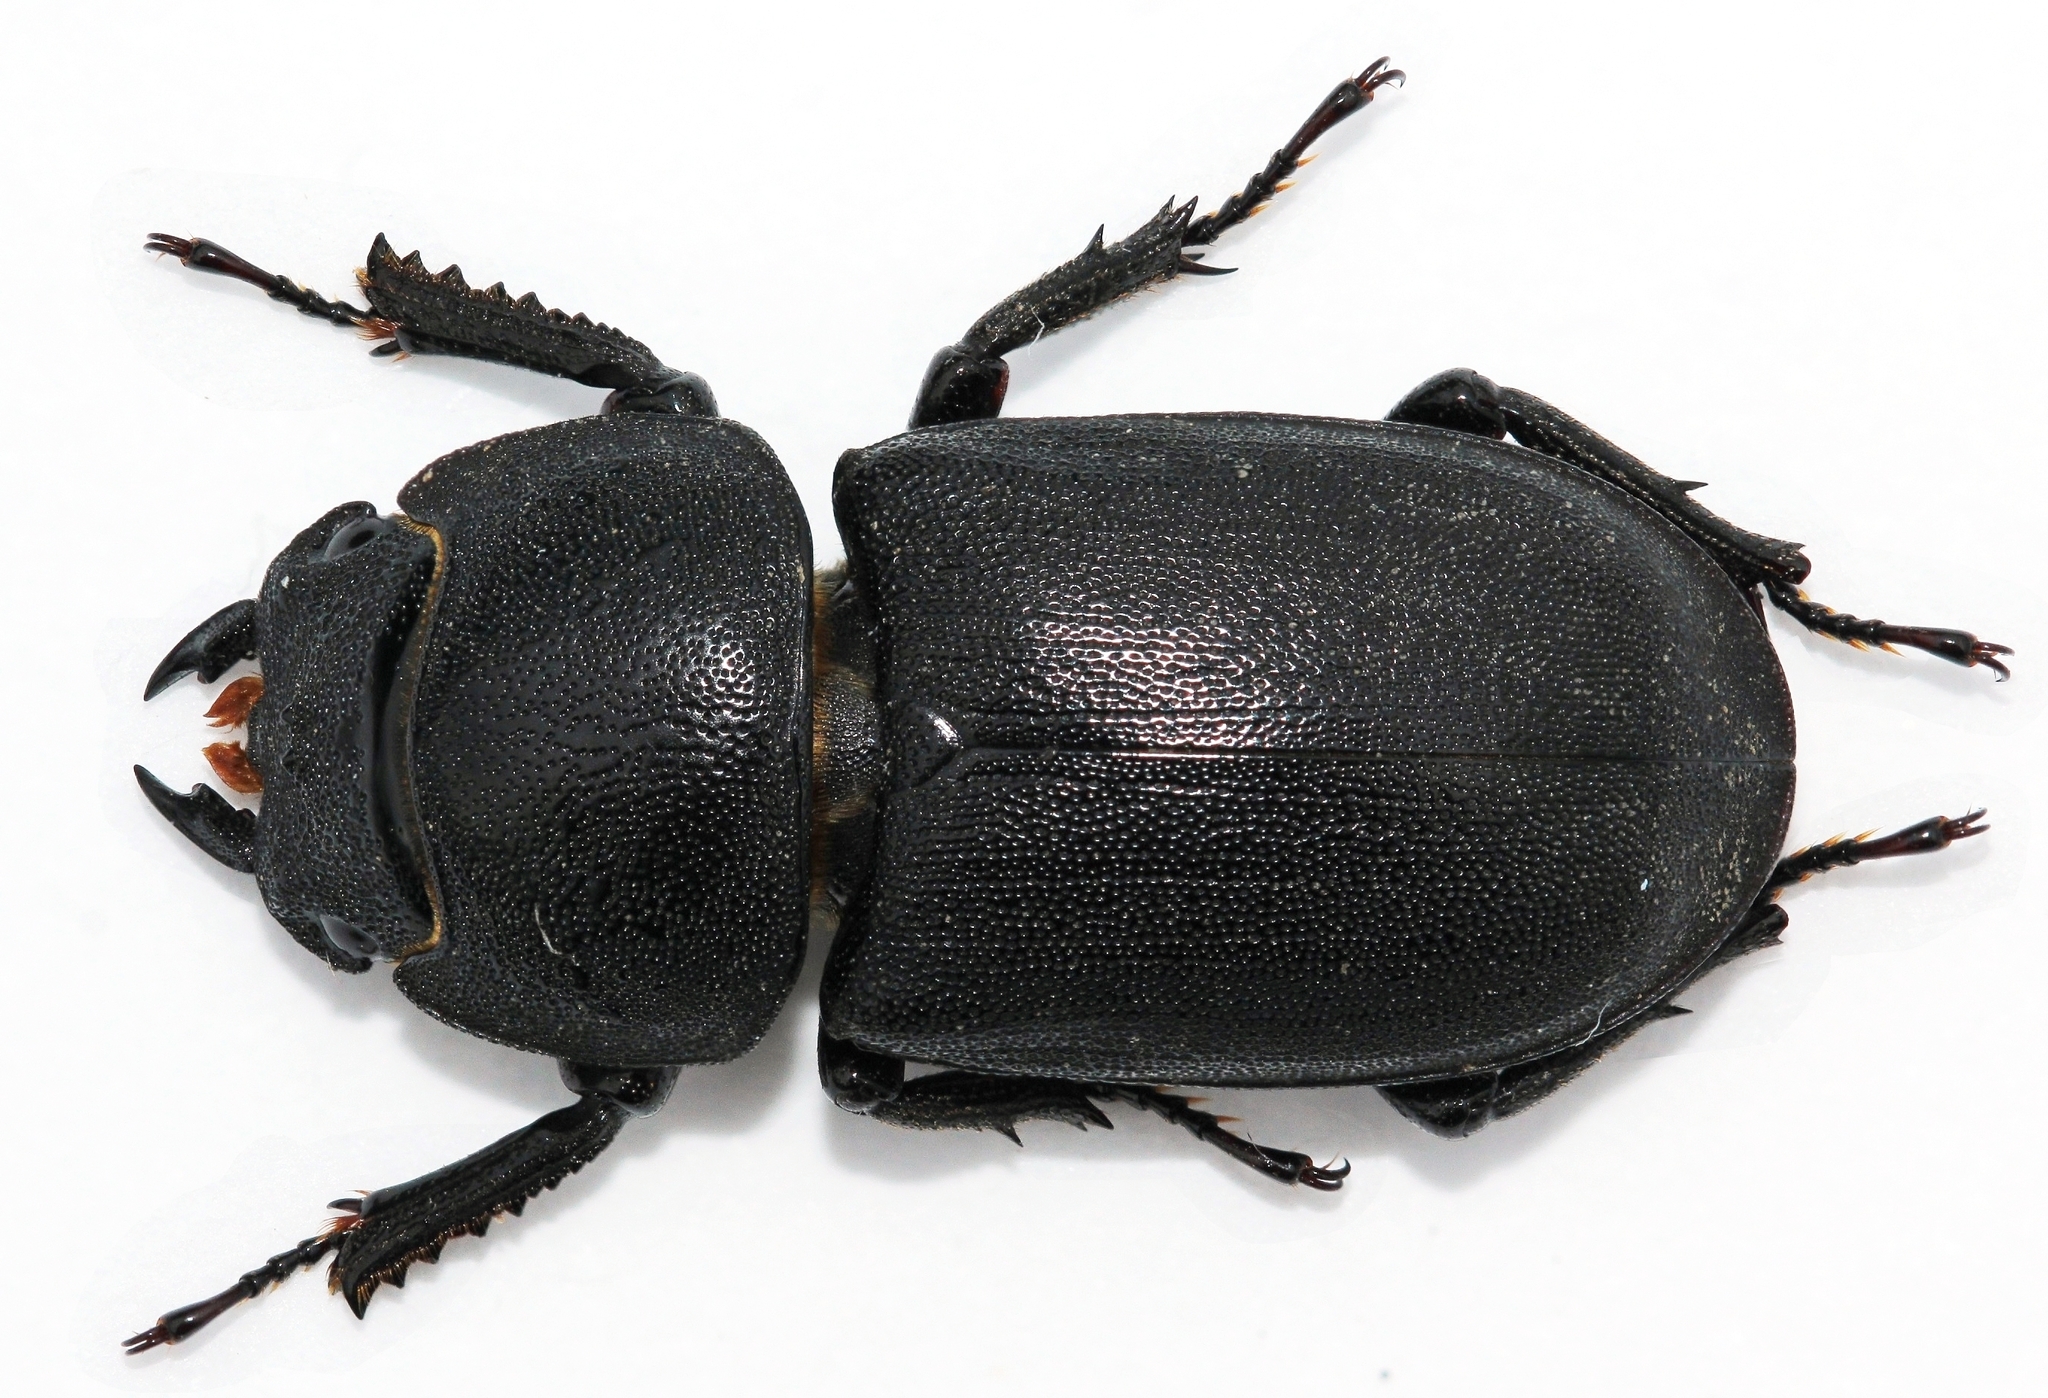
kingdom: Animalia
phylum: Arthropoda
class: Insecta
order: Coleoptera
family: Lucanidae
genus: Dorcus
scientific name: Dorcus parallelipipedus
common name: Lesser stag beetle
